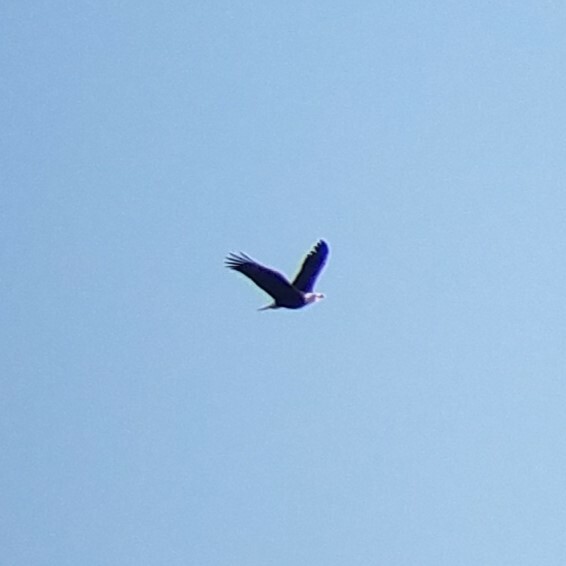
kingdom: Animalia
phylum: Chordata
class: Aves
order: Accipitriformes
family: Accipitridae
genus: Haliaeetus
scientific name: Haliaeetus leucocephalus
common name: Bald eagle
